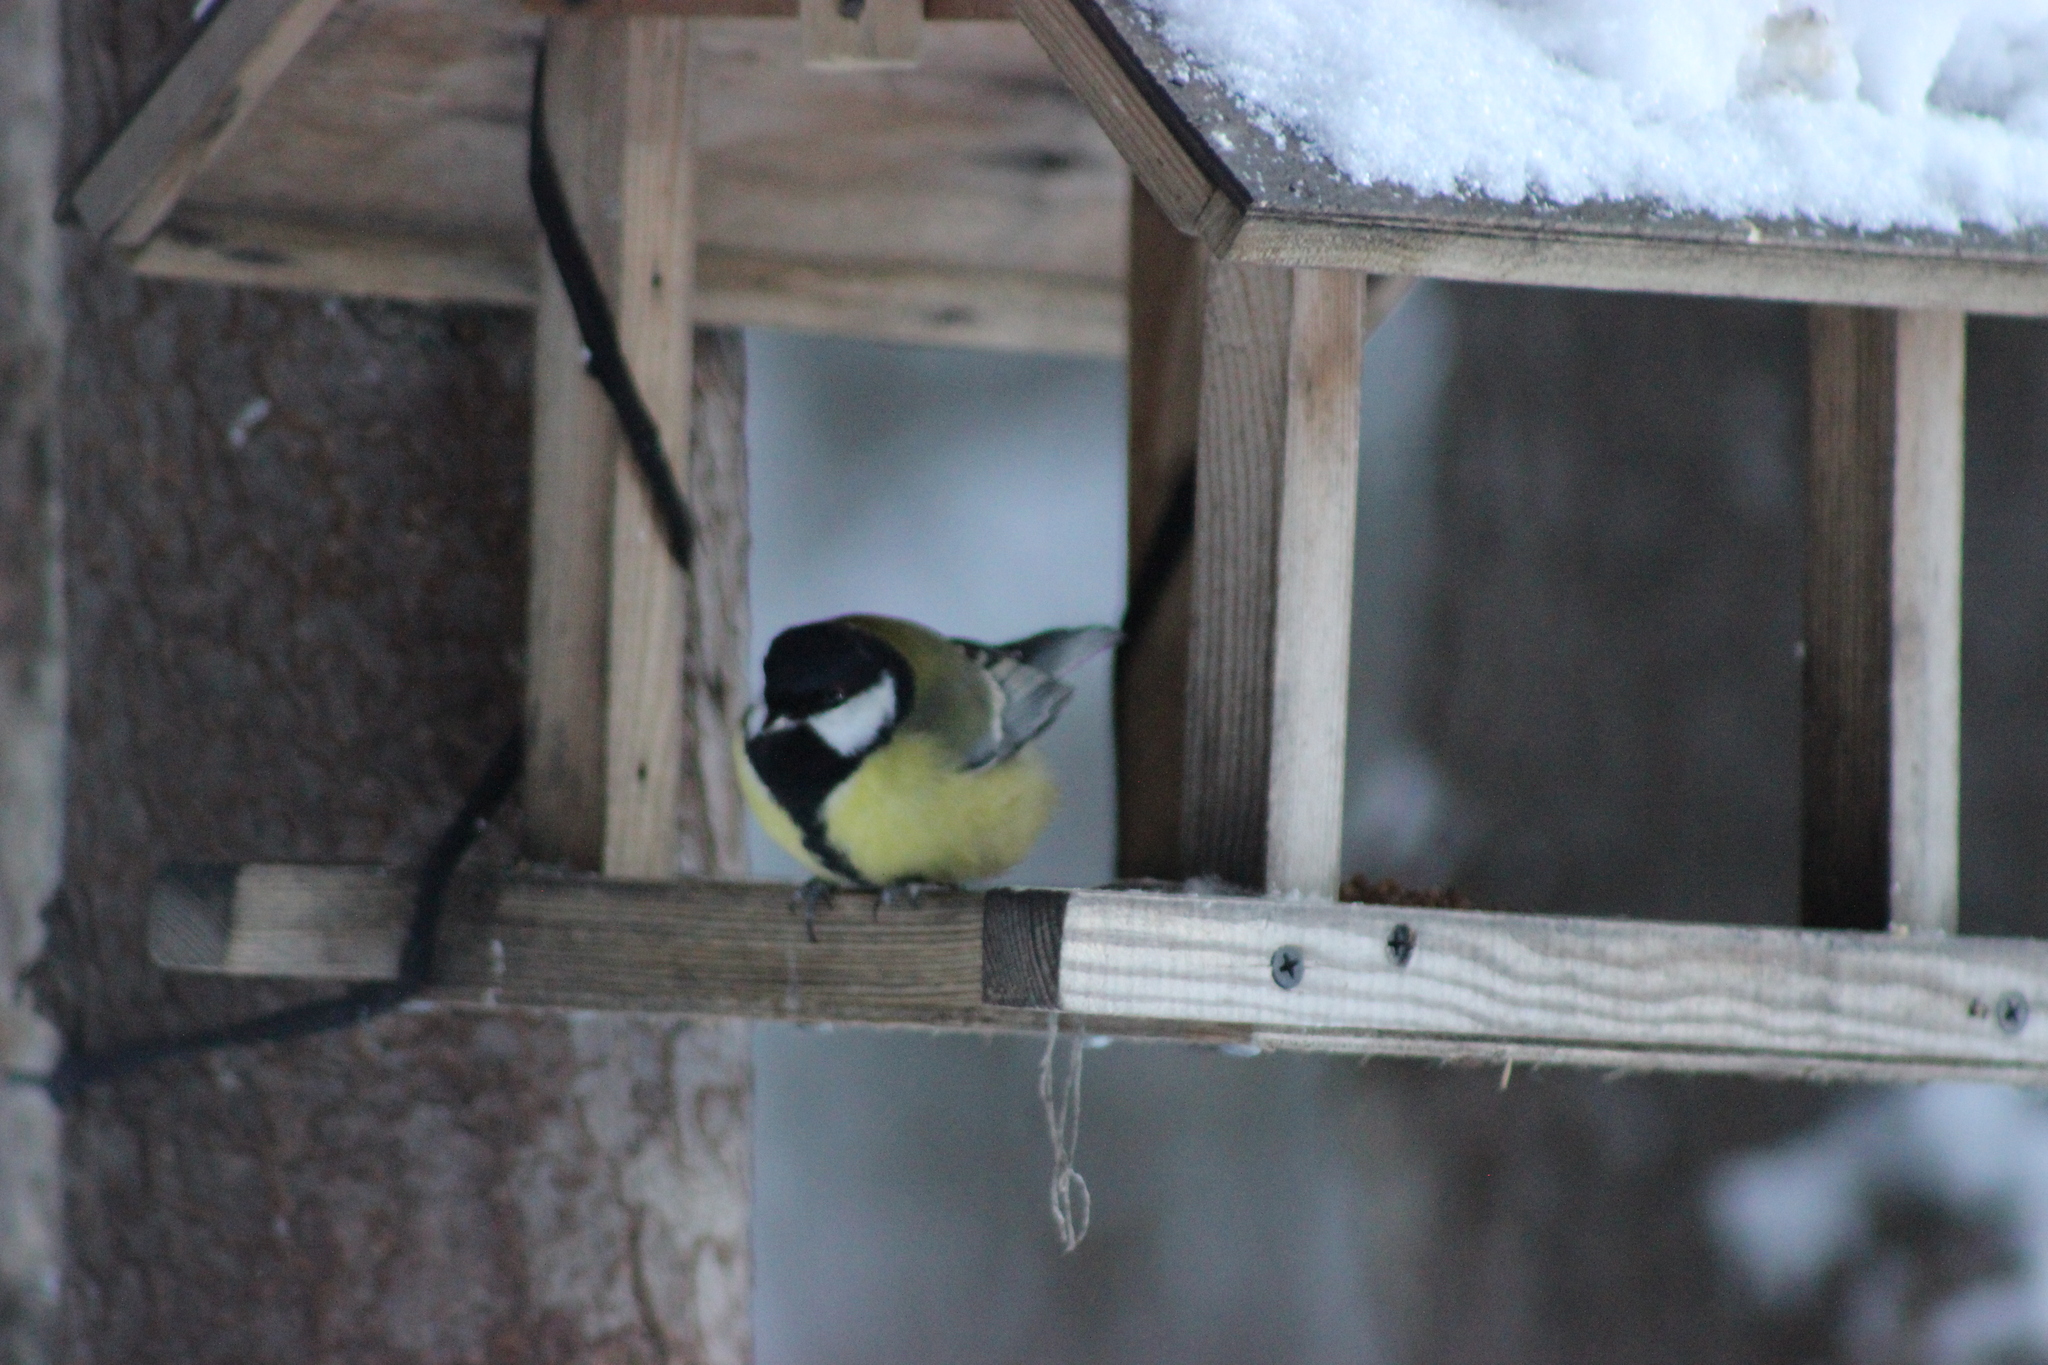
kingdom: Animalia
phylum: Chordata
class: Aves
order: Passeriformes
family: Paridae
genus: Parus
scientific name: Parus major
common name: Great tit
